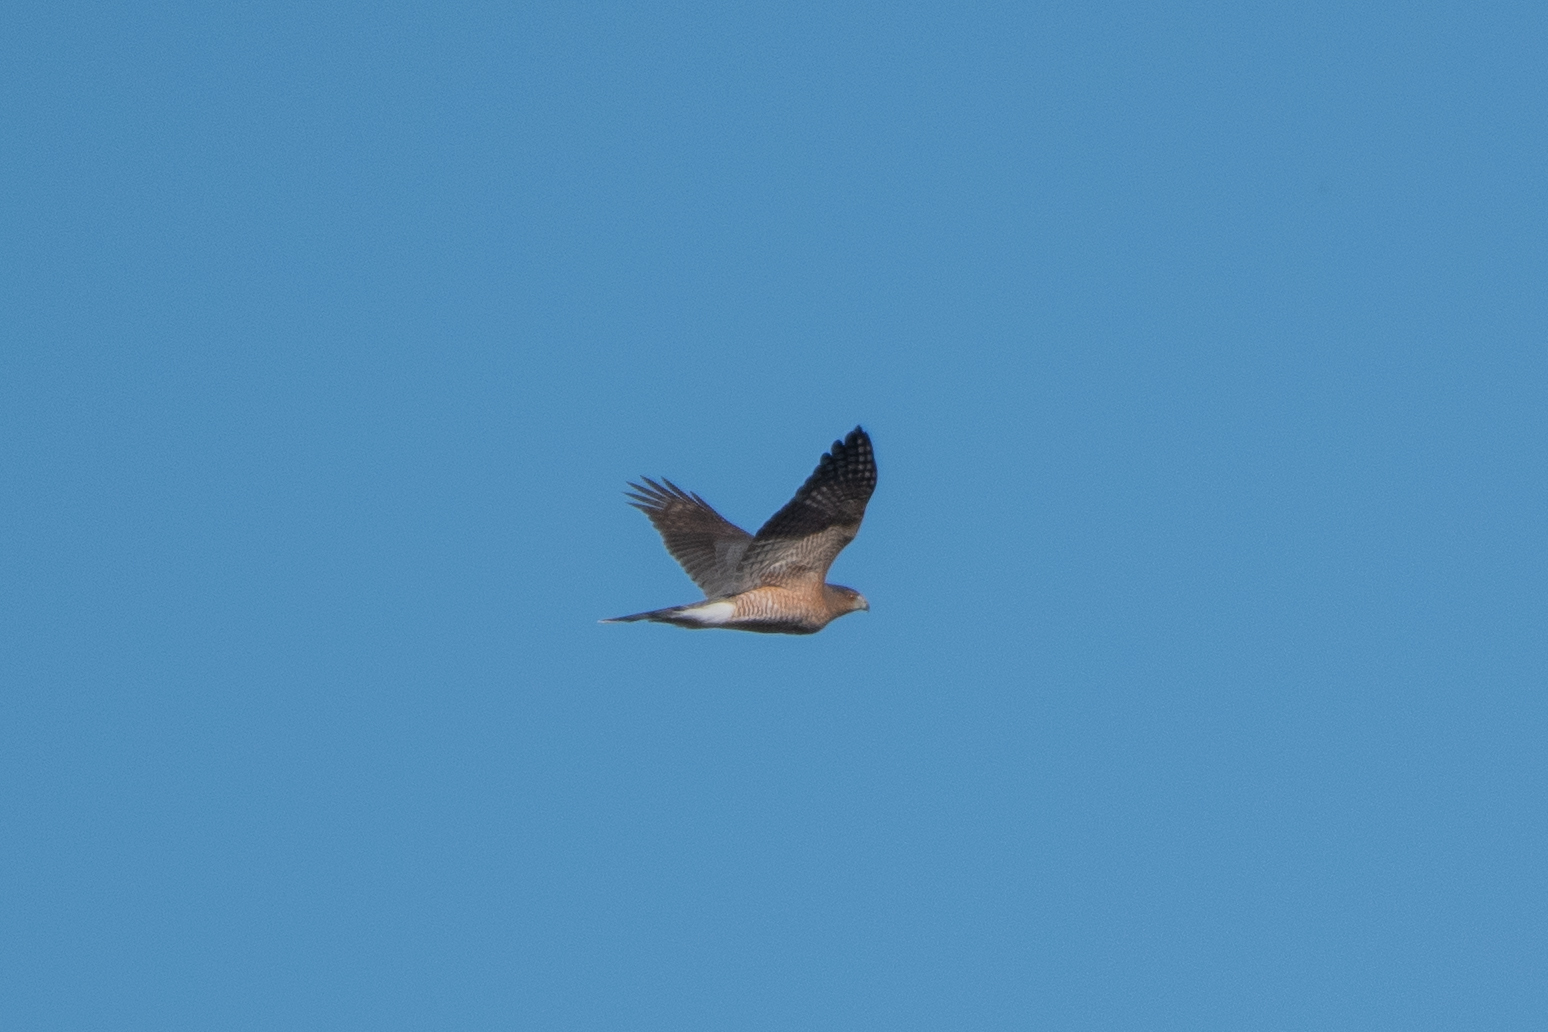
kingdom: Animalia
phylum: Chordata
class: Aves
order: Accipitriformes
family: Accipitridae
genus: Accipiter
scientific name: Accipiter cooperii
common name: Cooper's hawk
